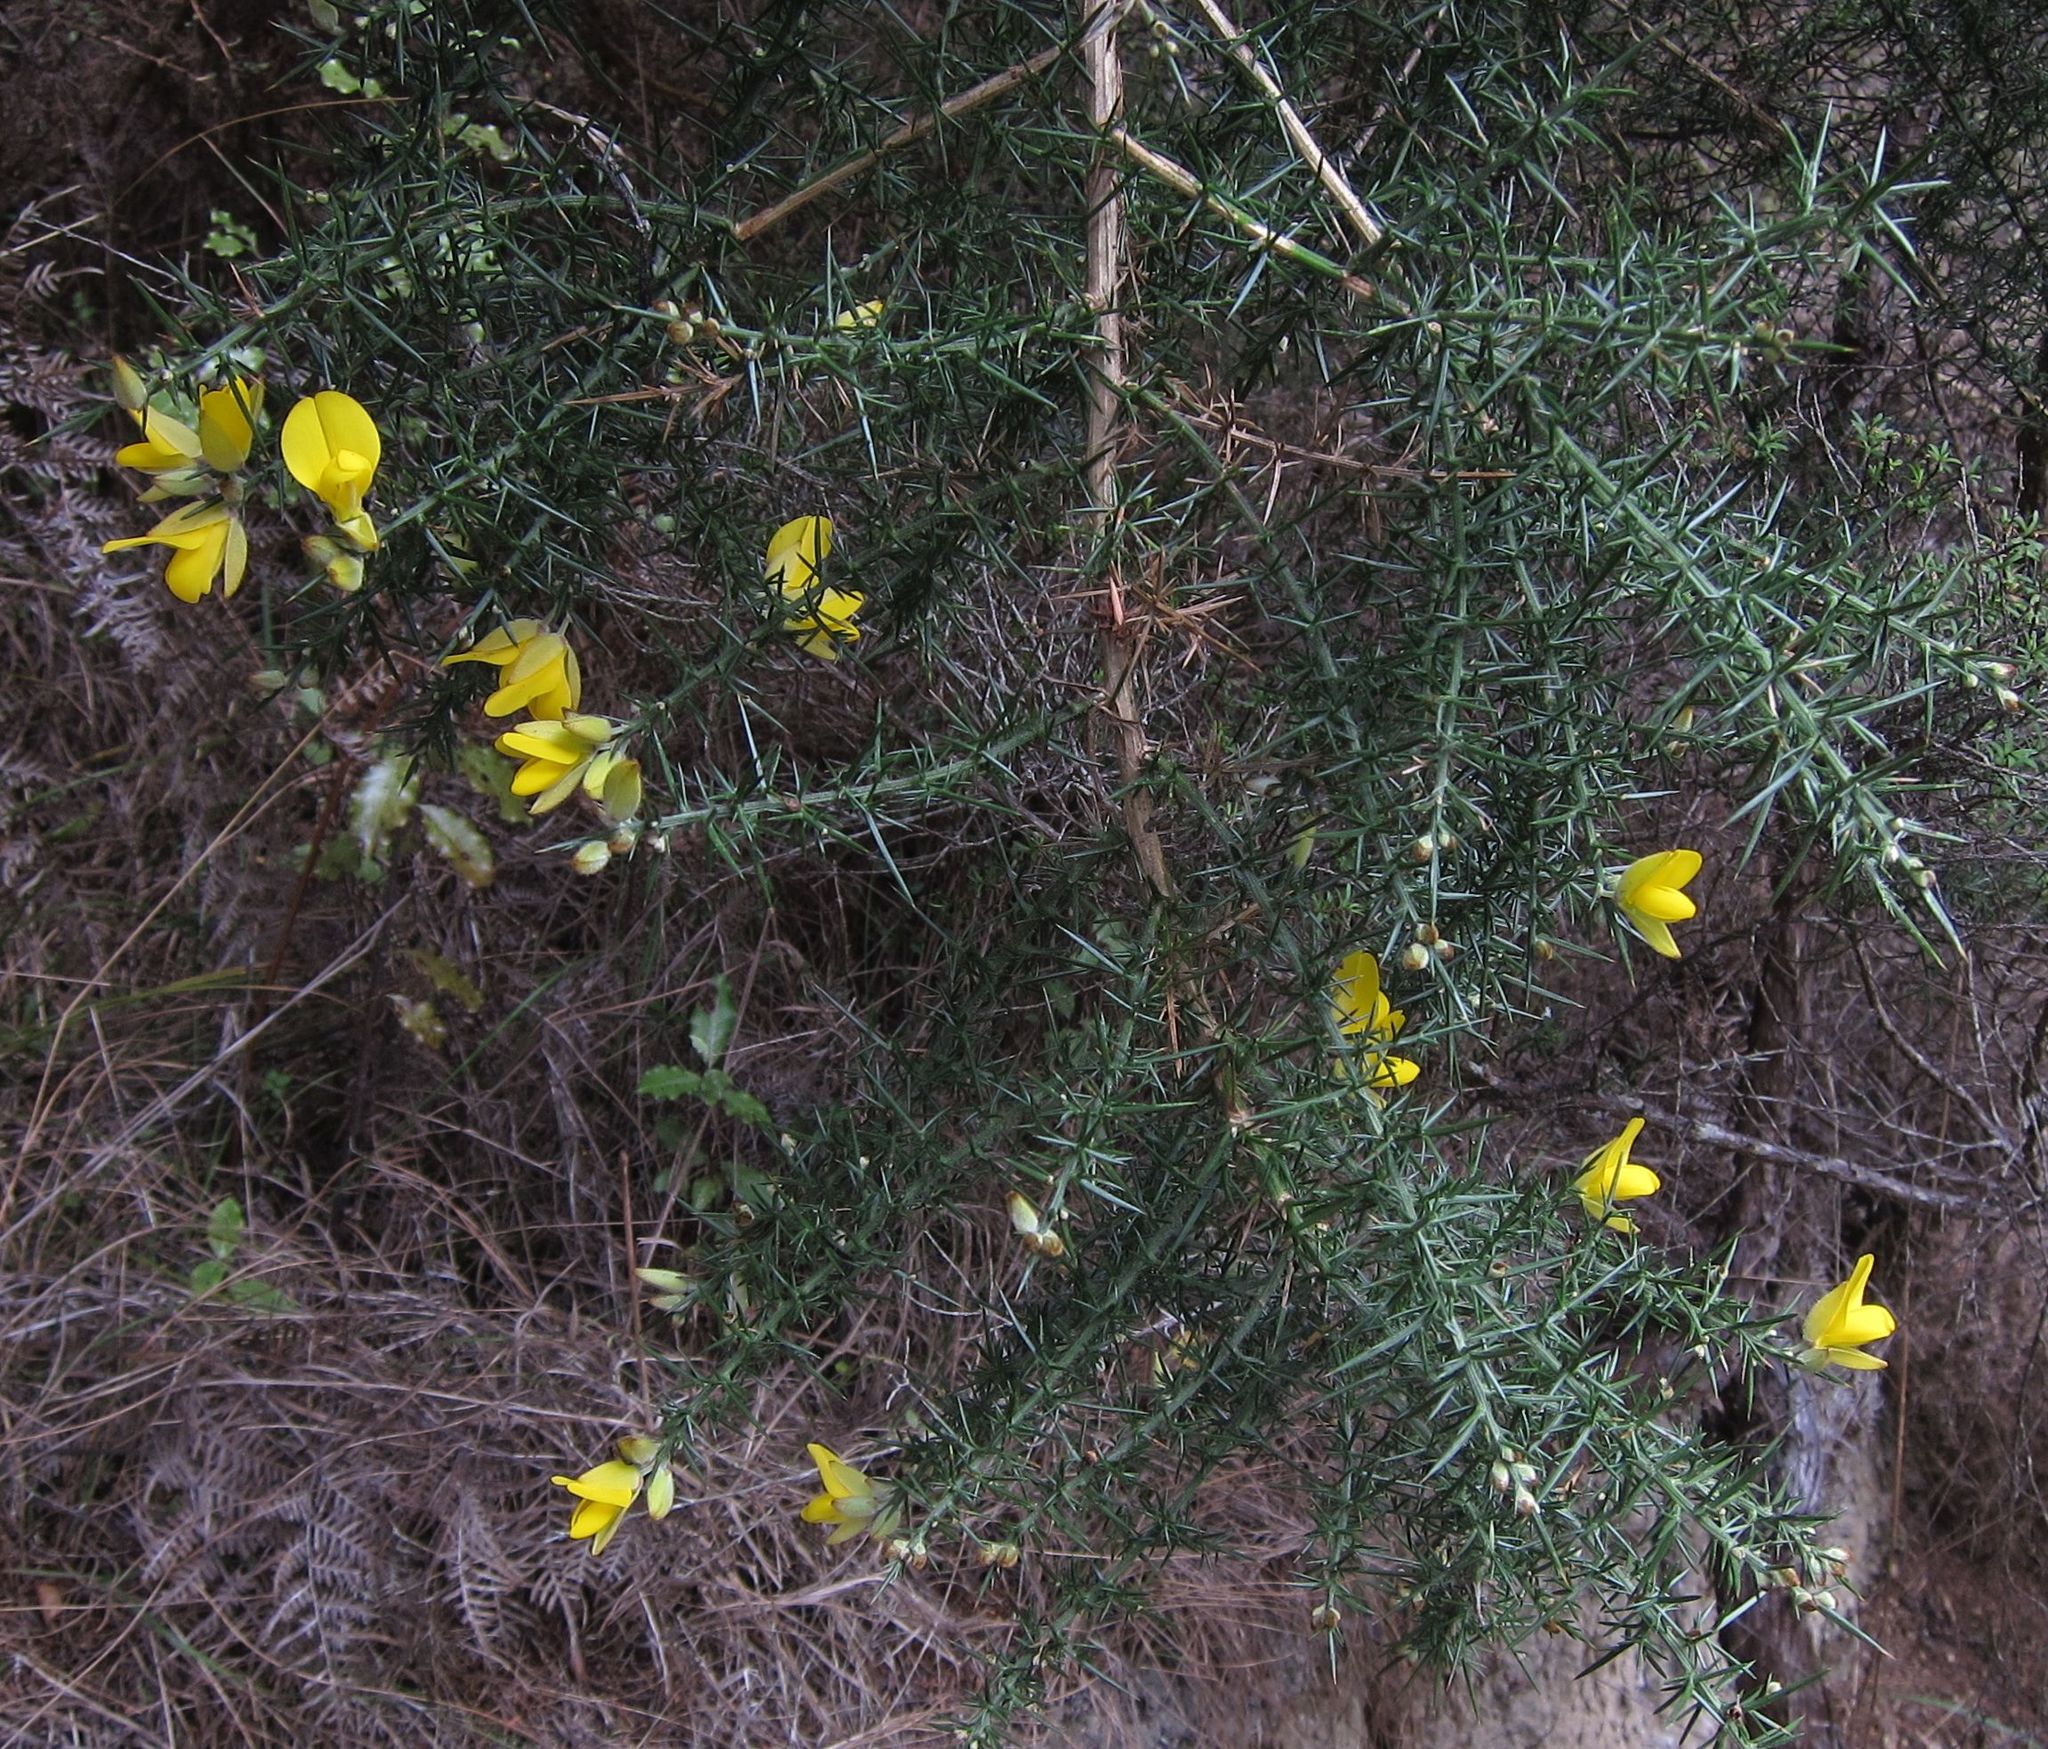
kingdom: Plantae
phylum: Tracheophyta
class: Magnoliopsida
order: Fabales
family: Fabaceae
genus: Ulex
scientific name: Ulex europaeus
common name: Common gorse
